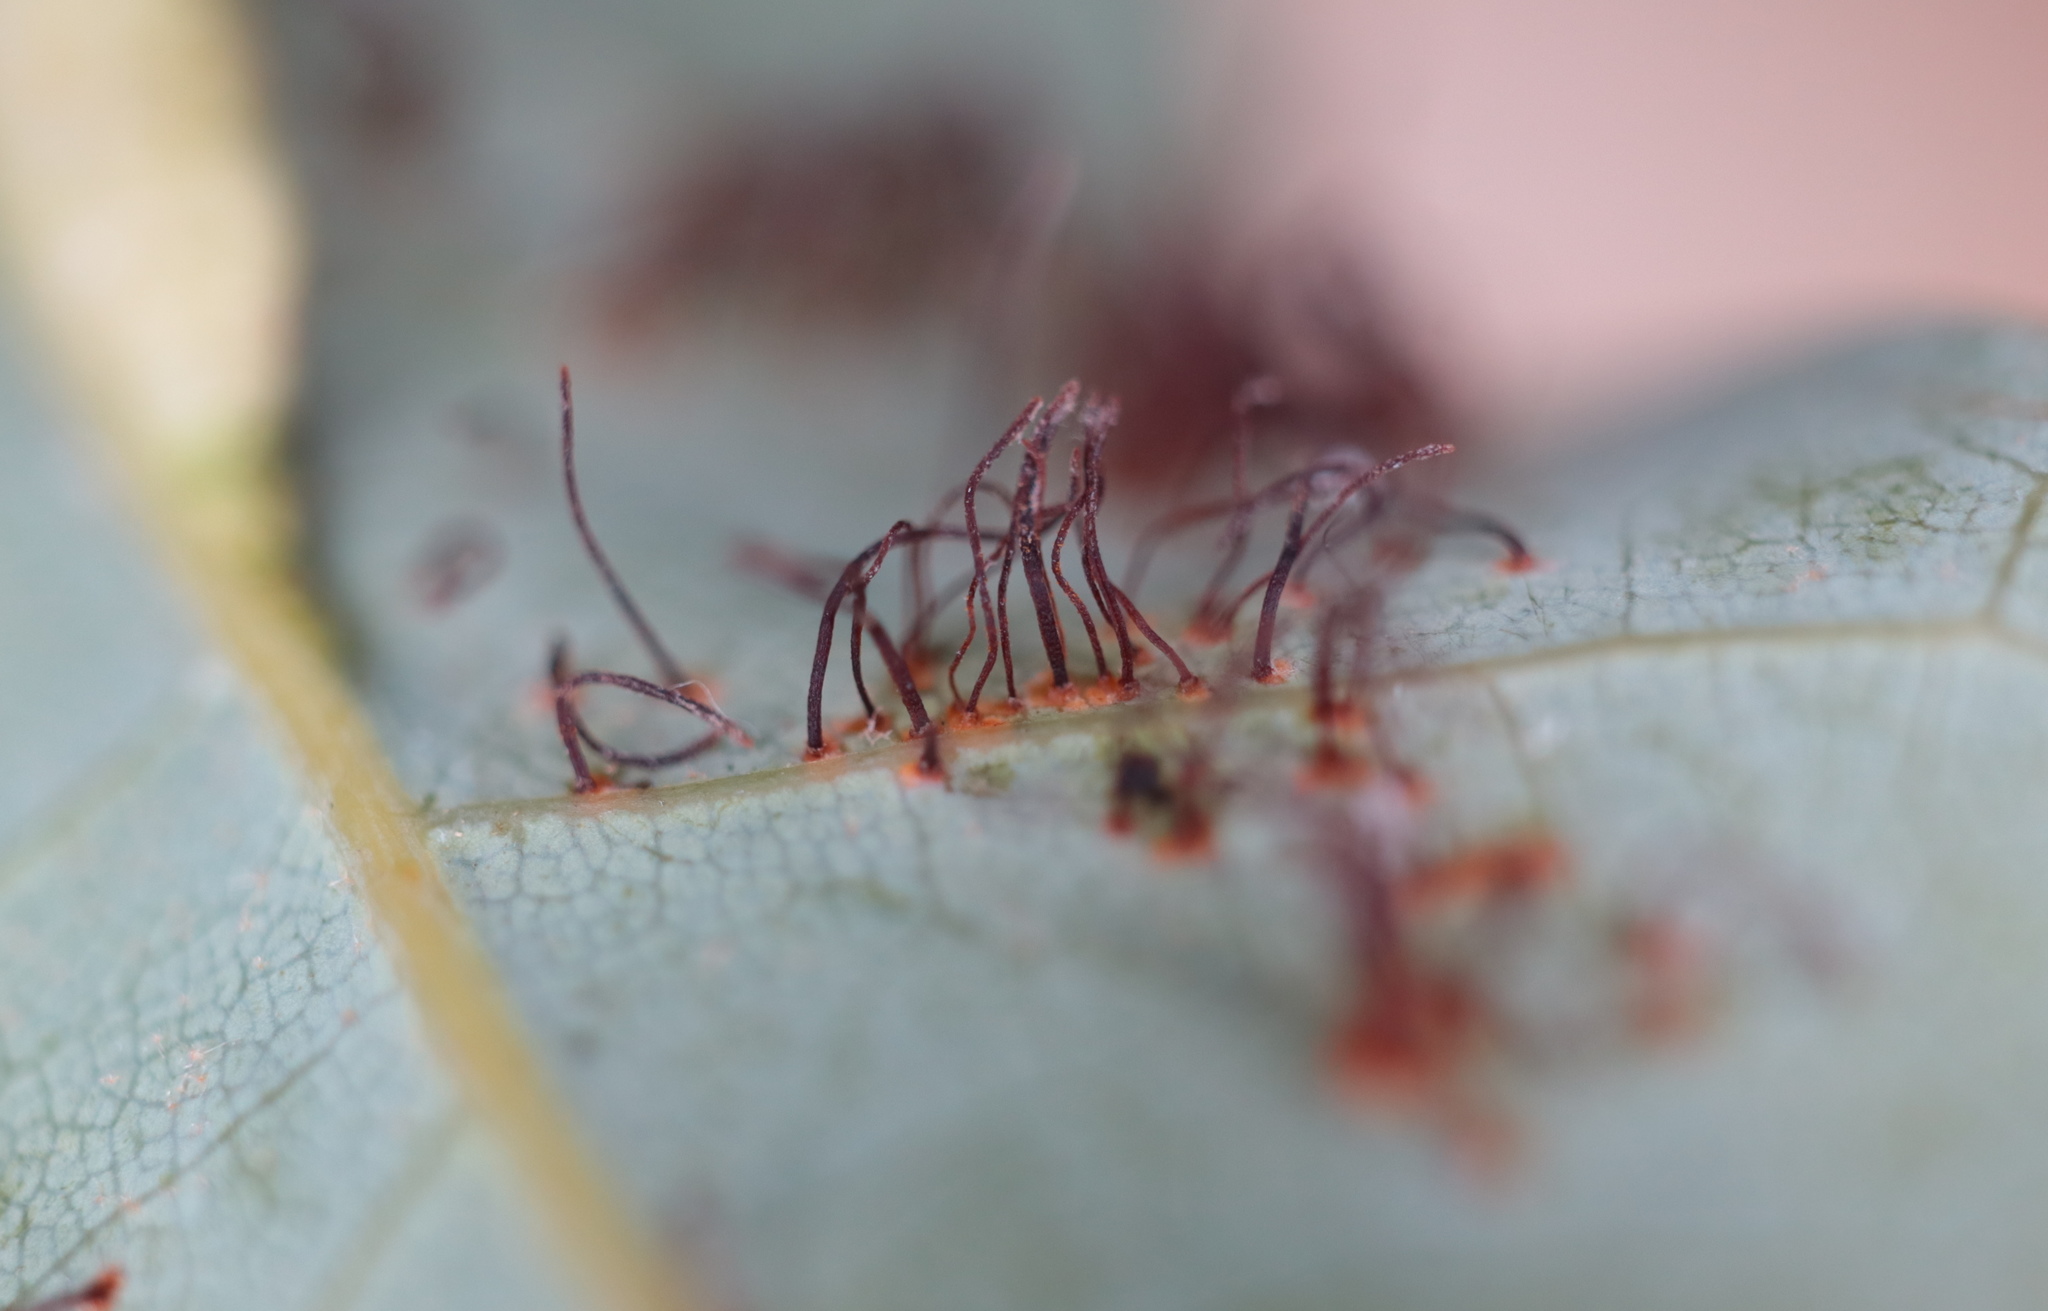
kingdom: Fungi
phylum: Basidiomycota
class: Pucciniomycetes
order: Pucciniales
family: Cronartiaceae
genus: Cronartium
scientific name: Cronartium quercuum
